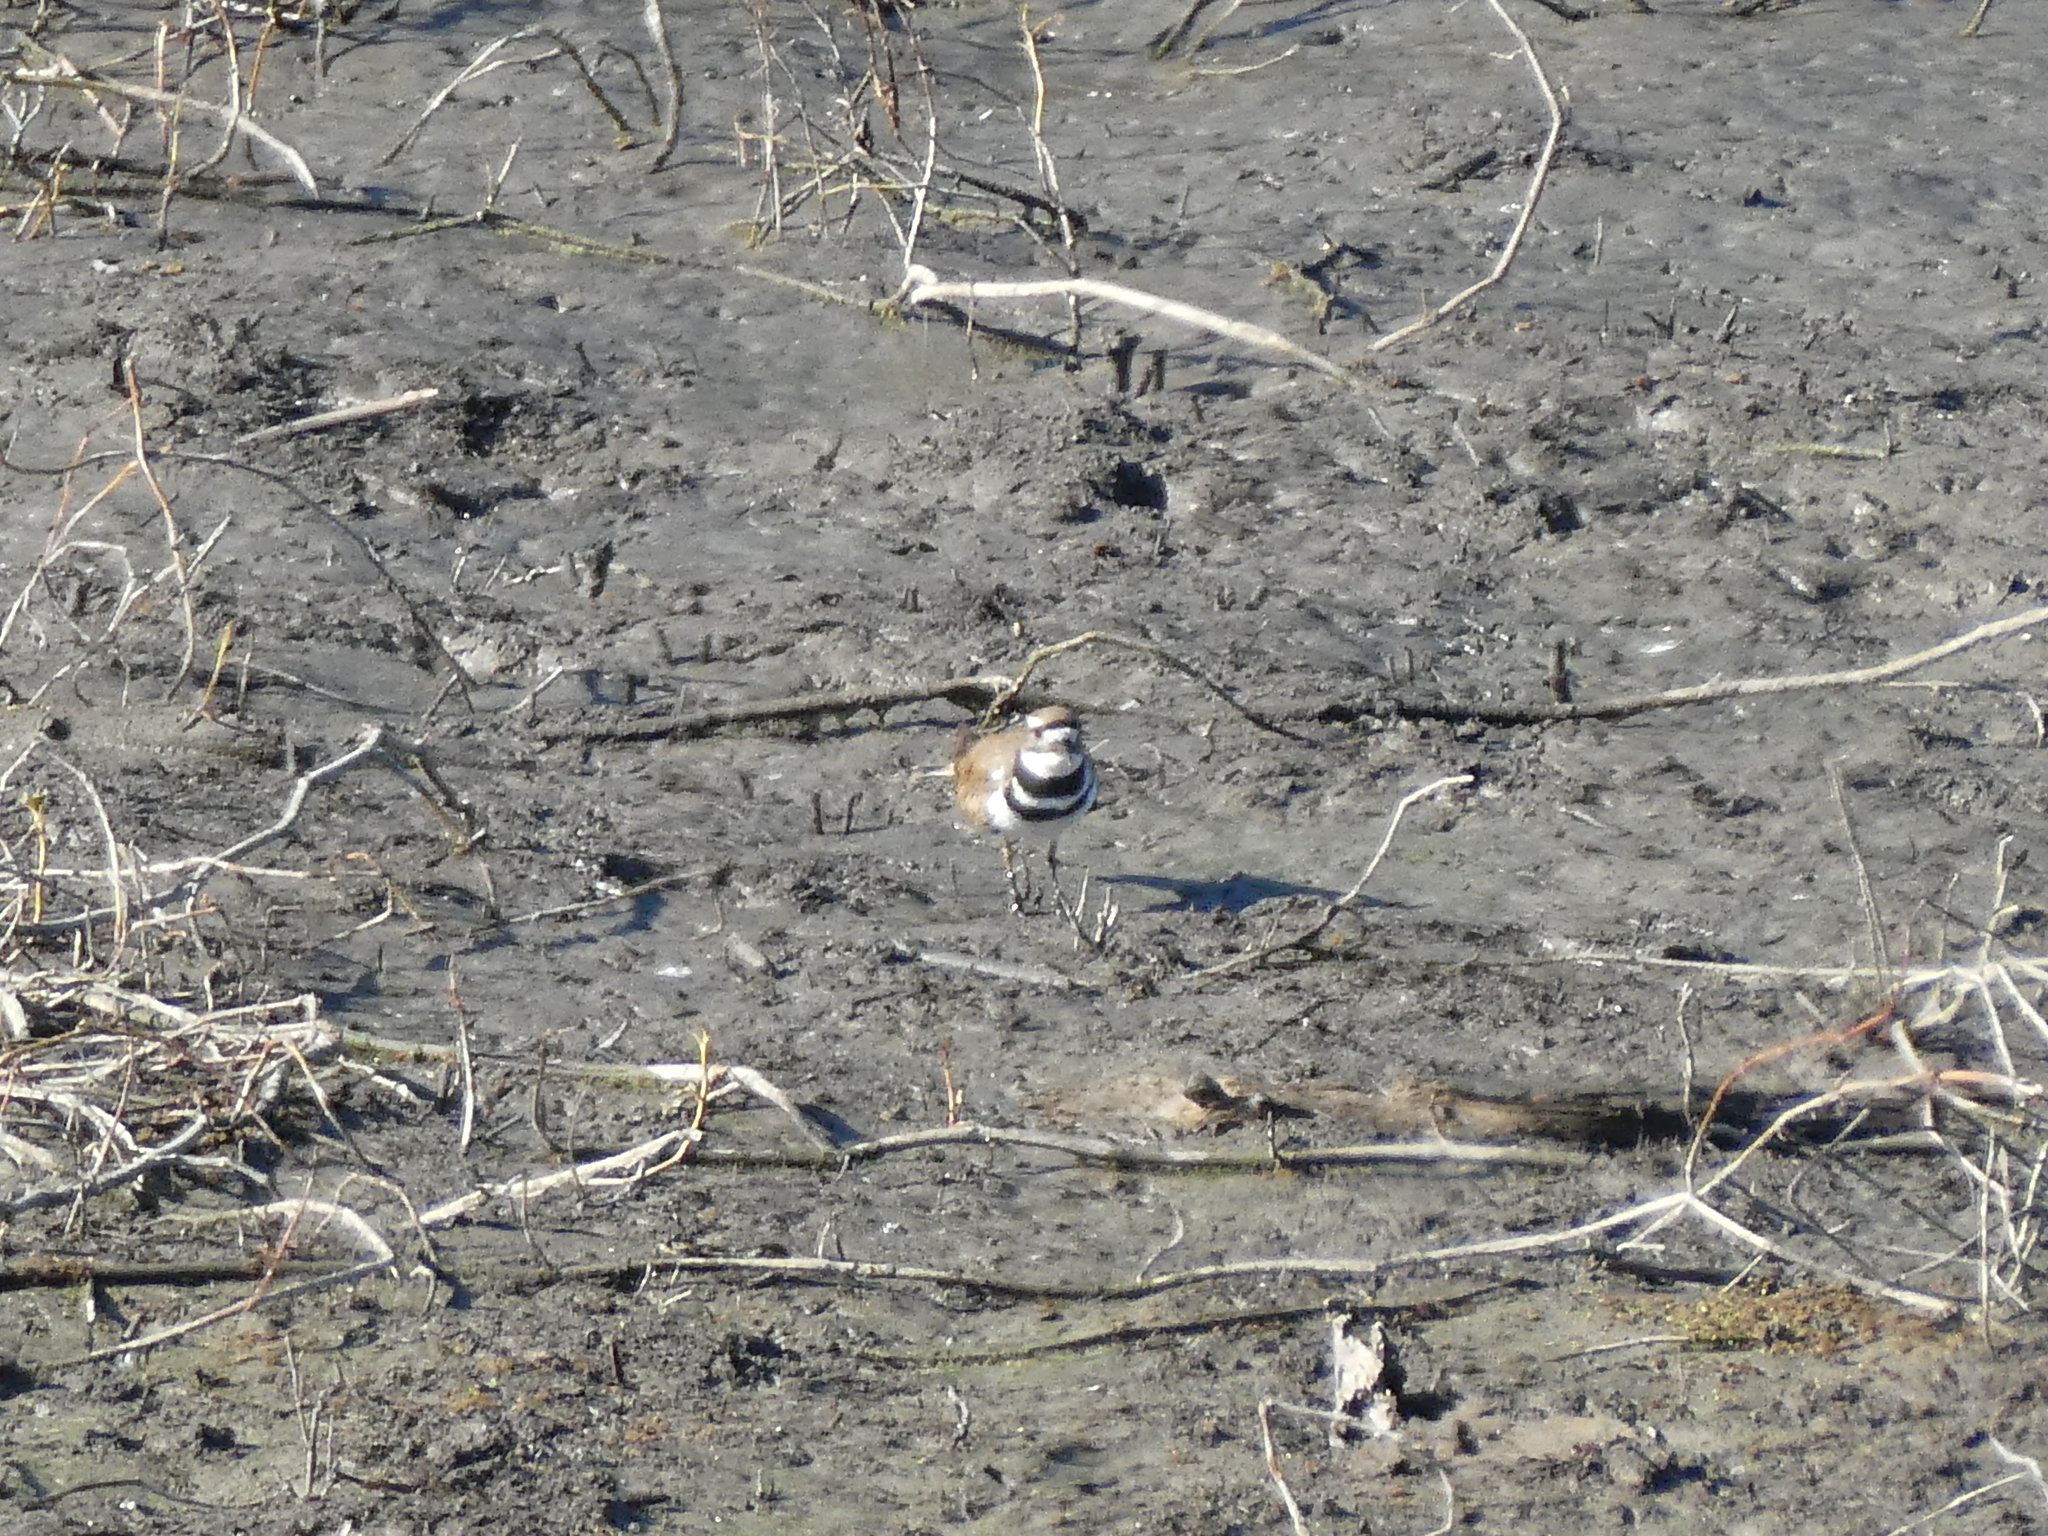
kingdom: Animalia
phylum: Chordata
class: Aves
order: Charadriiformes
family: Charadriidae
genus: Charadrius
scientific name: Charadrius vociferus
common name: Killdeer
